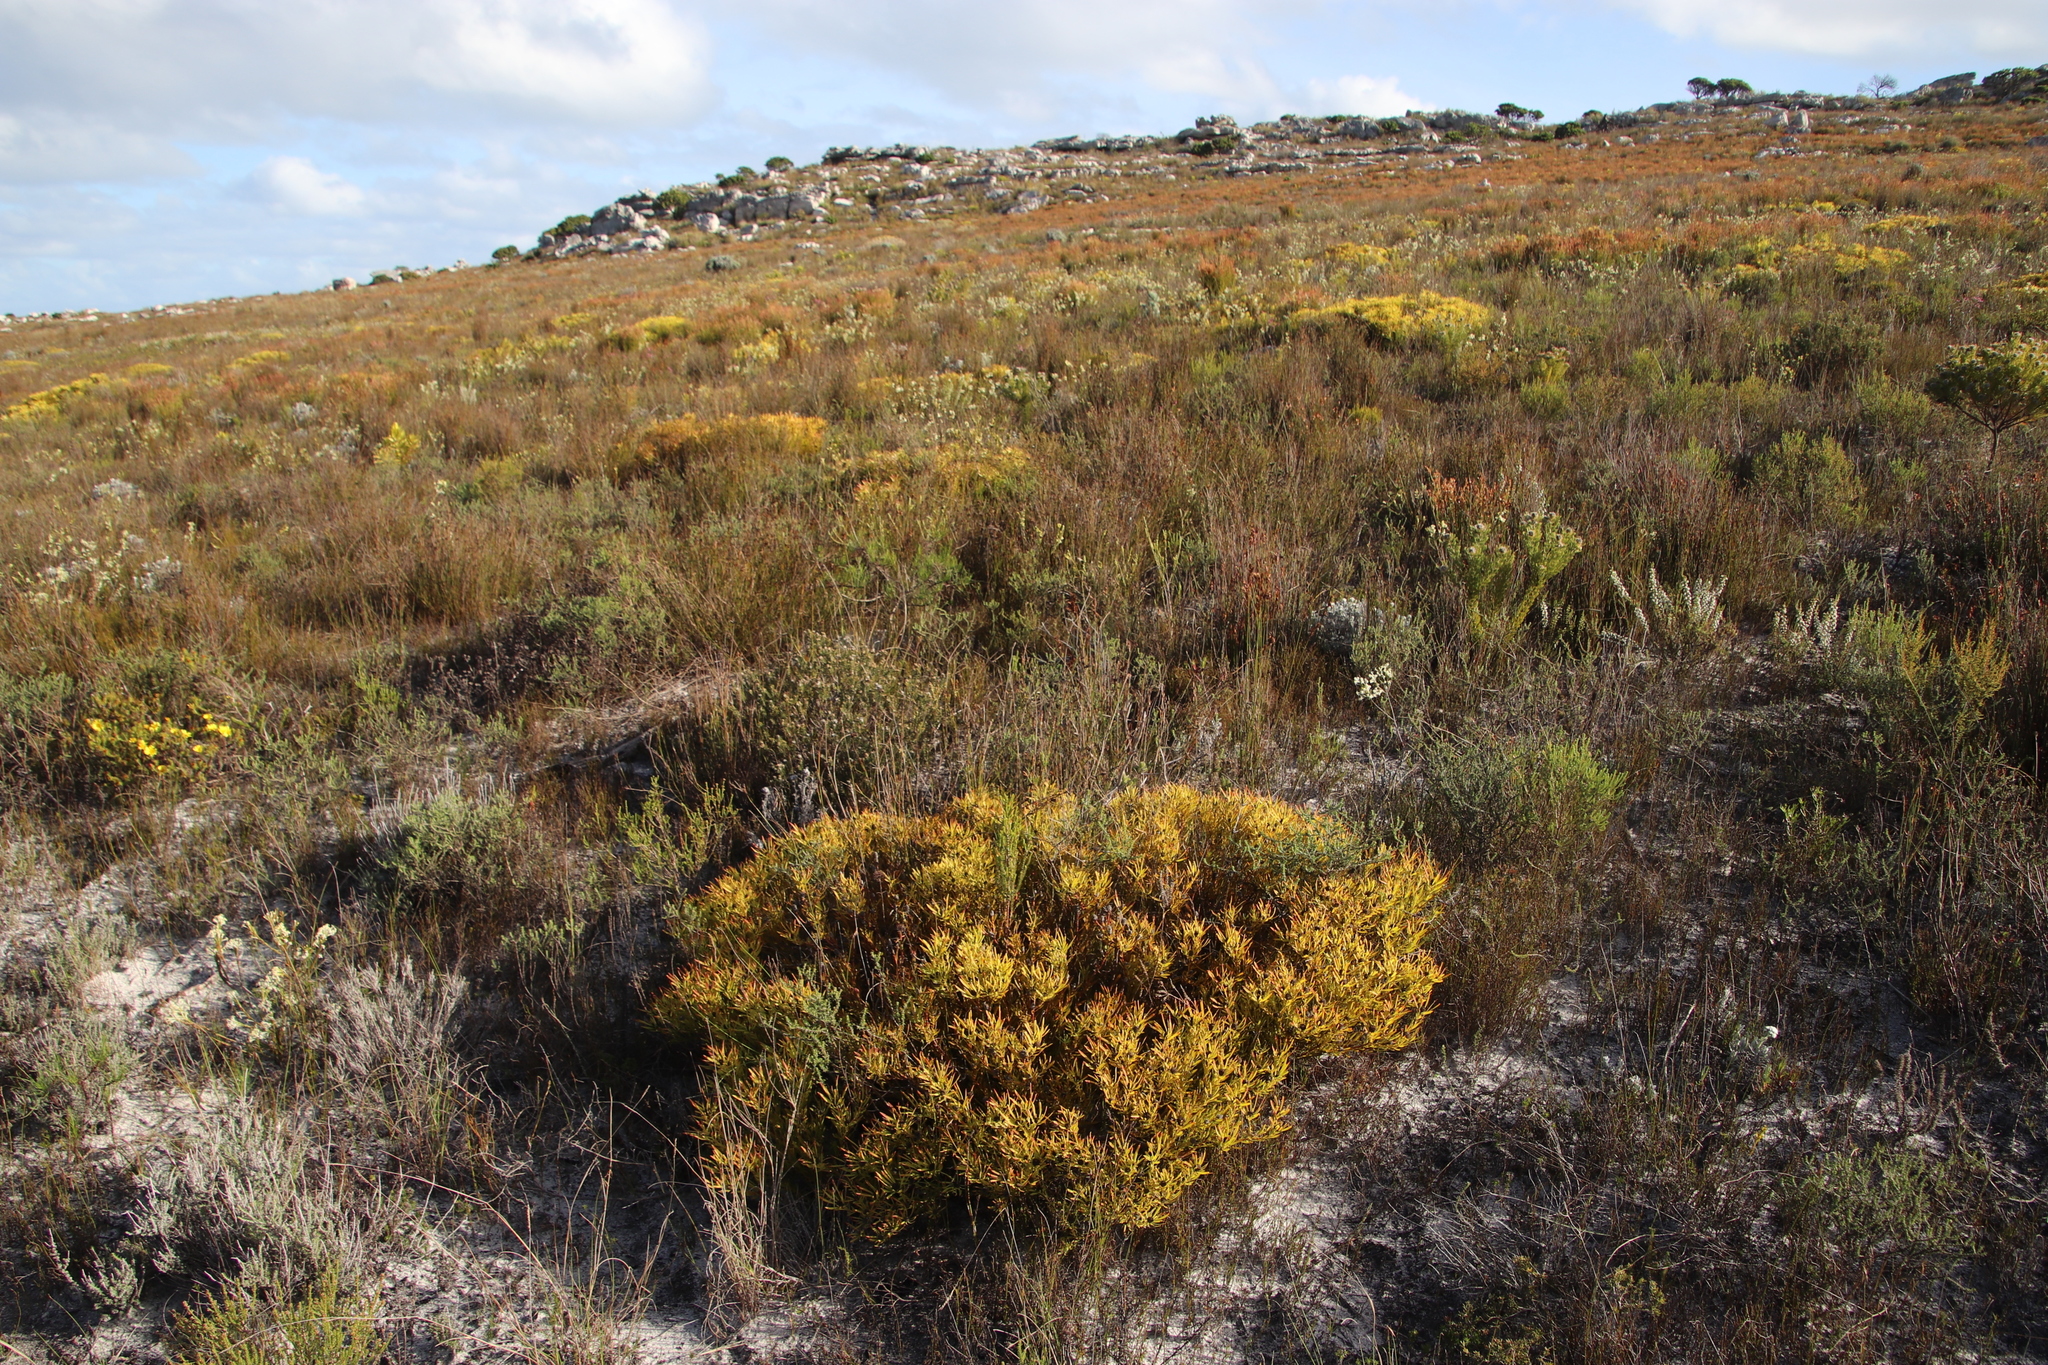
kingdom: Plantae
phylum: Tracheophyta
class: Magnoliopsida
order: Proteales
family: Proteaceae
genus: Leucadendron
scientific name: Leucadendron salignum
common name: Common sunshine conebush
